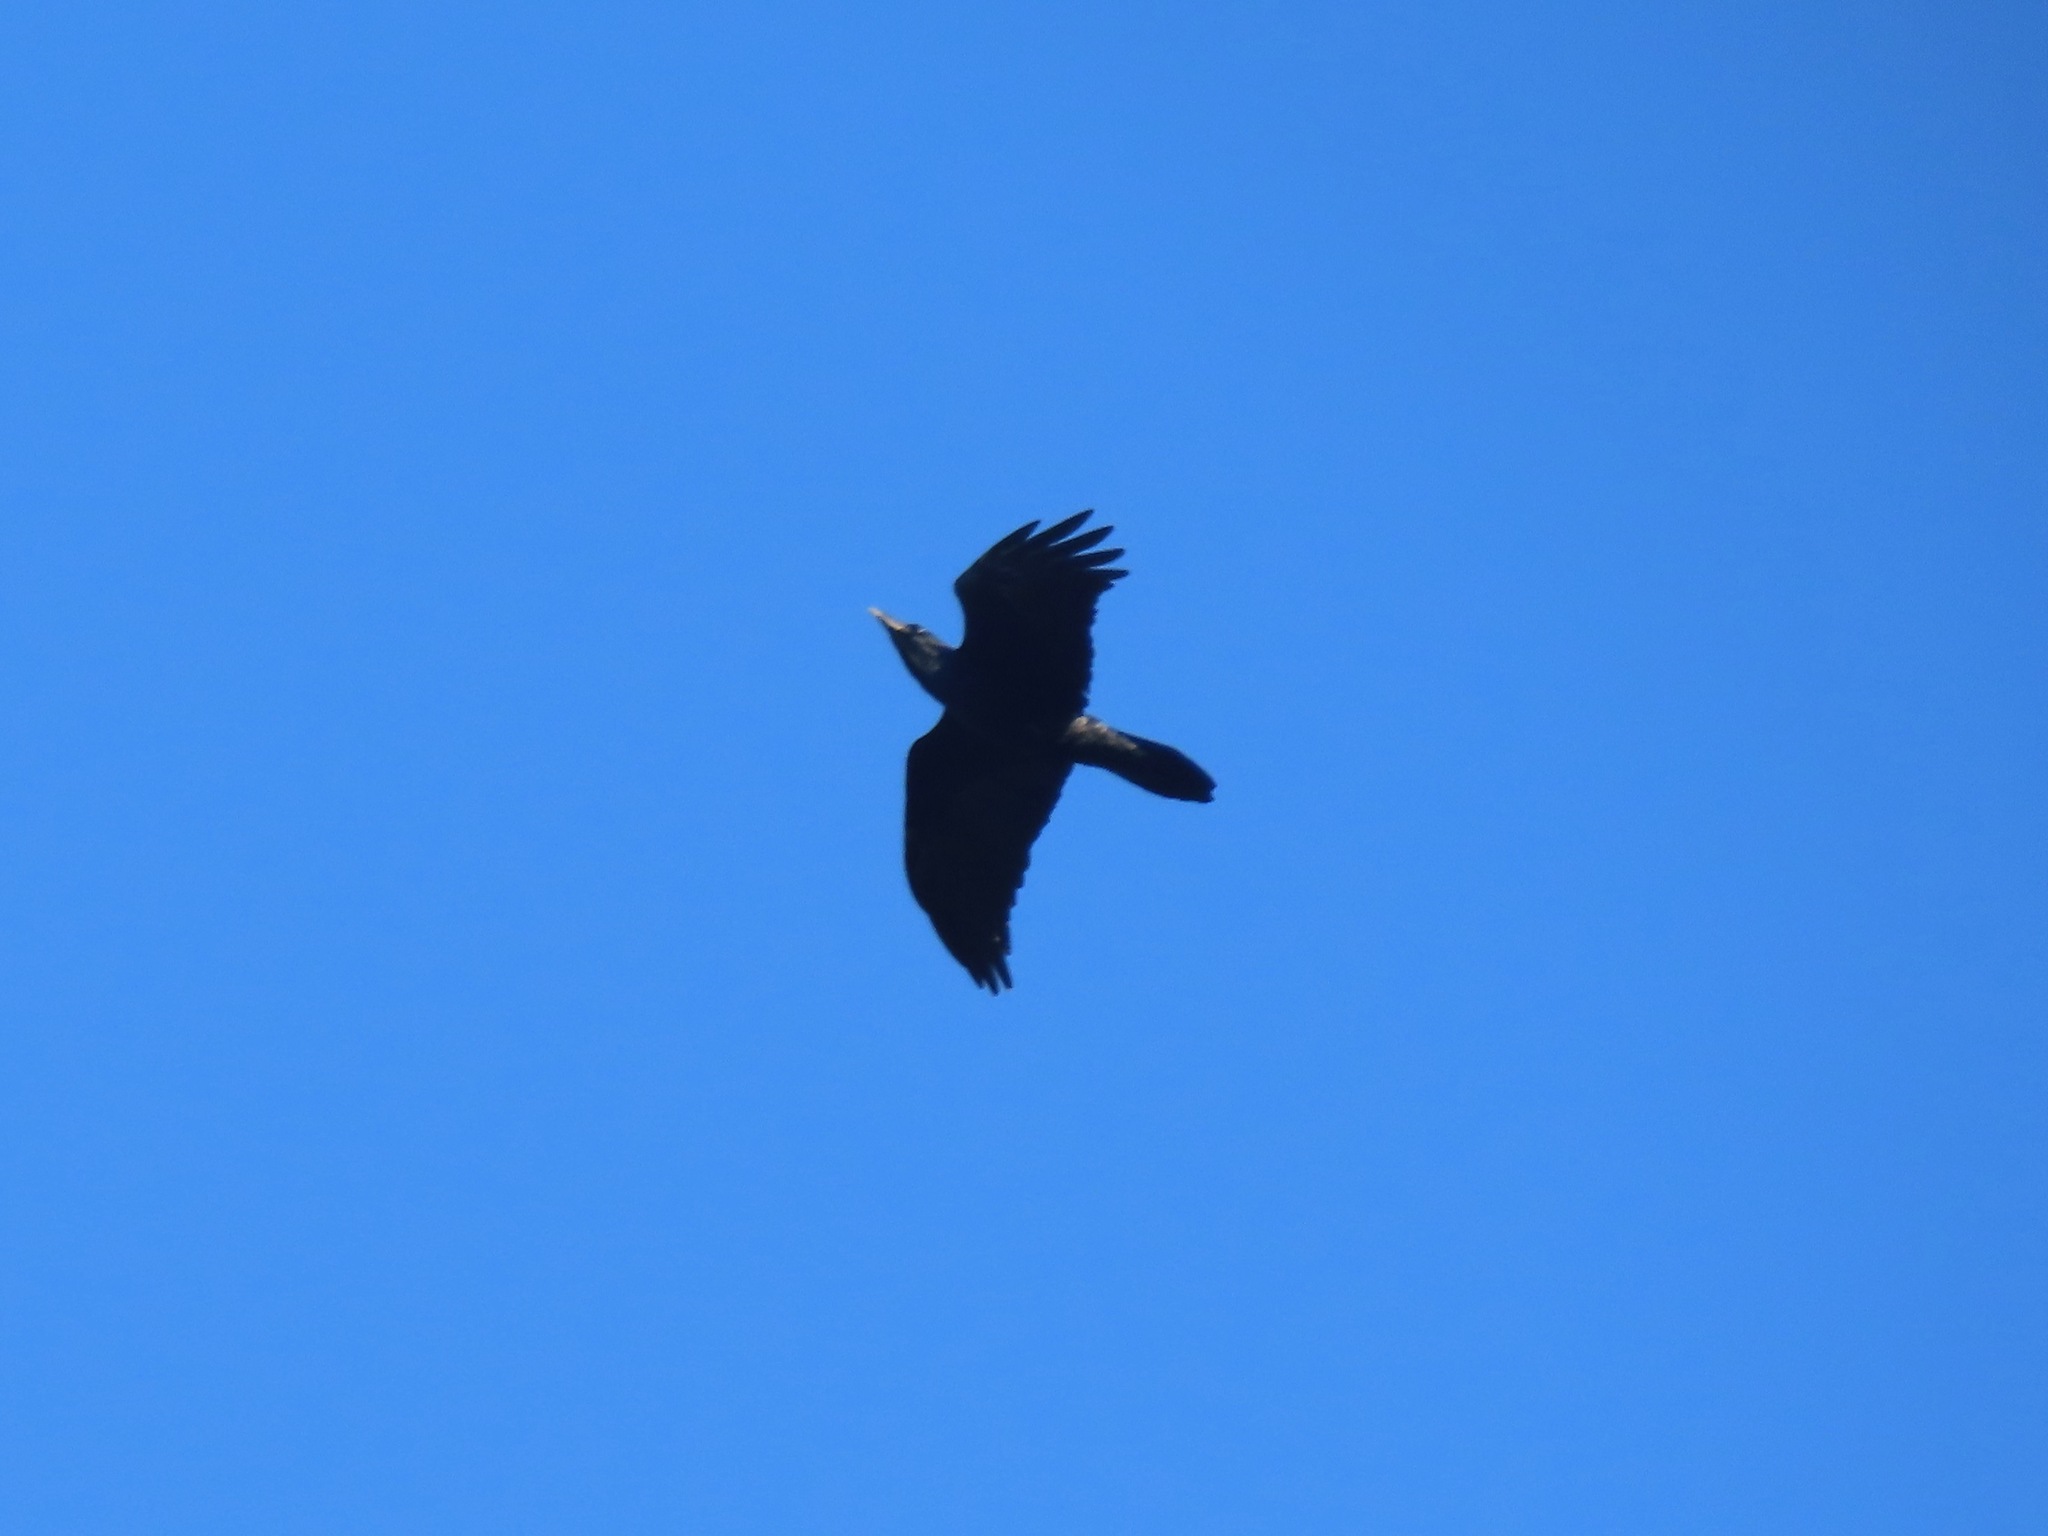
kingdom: Animalia
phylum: Chordata
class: Aves
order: Passeriformes
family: Corvidae
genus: Corvus
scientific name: Corvus corax
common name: Common raven
